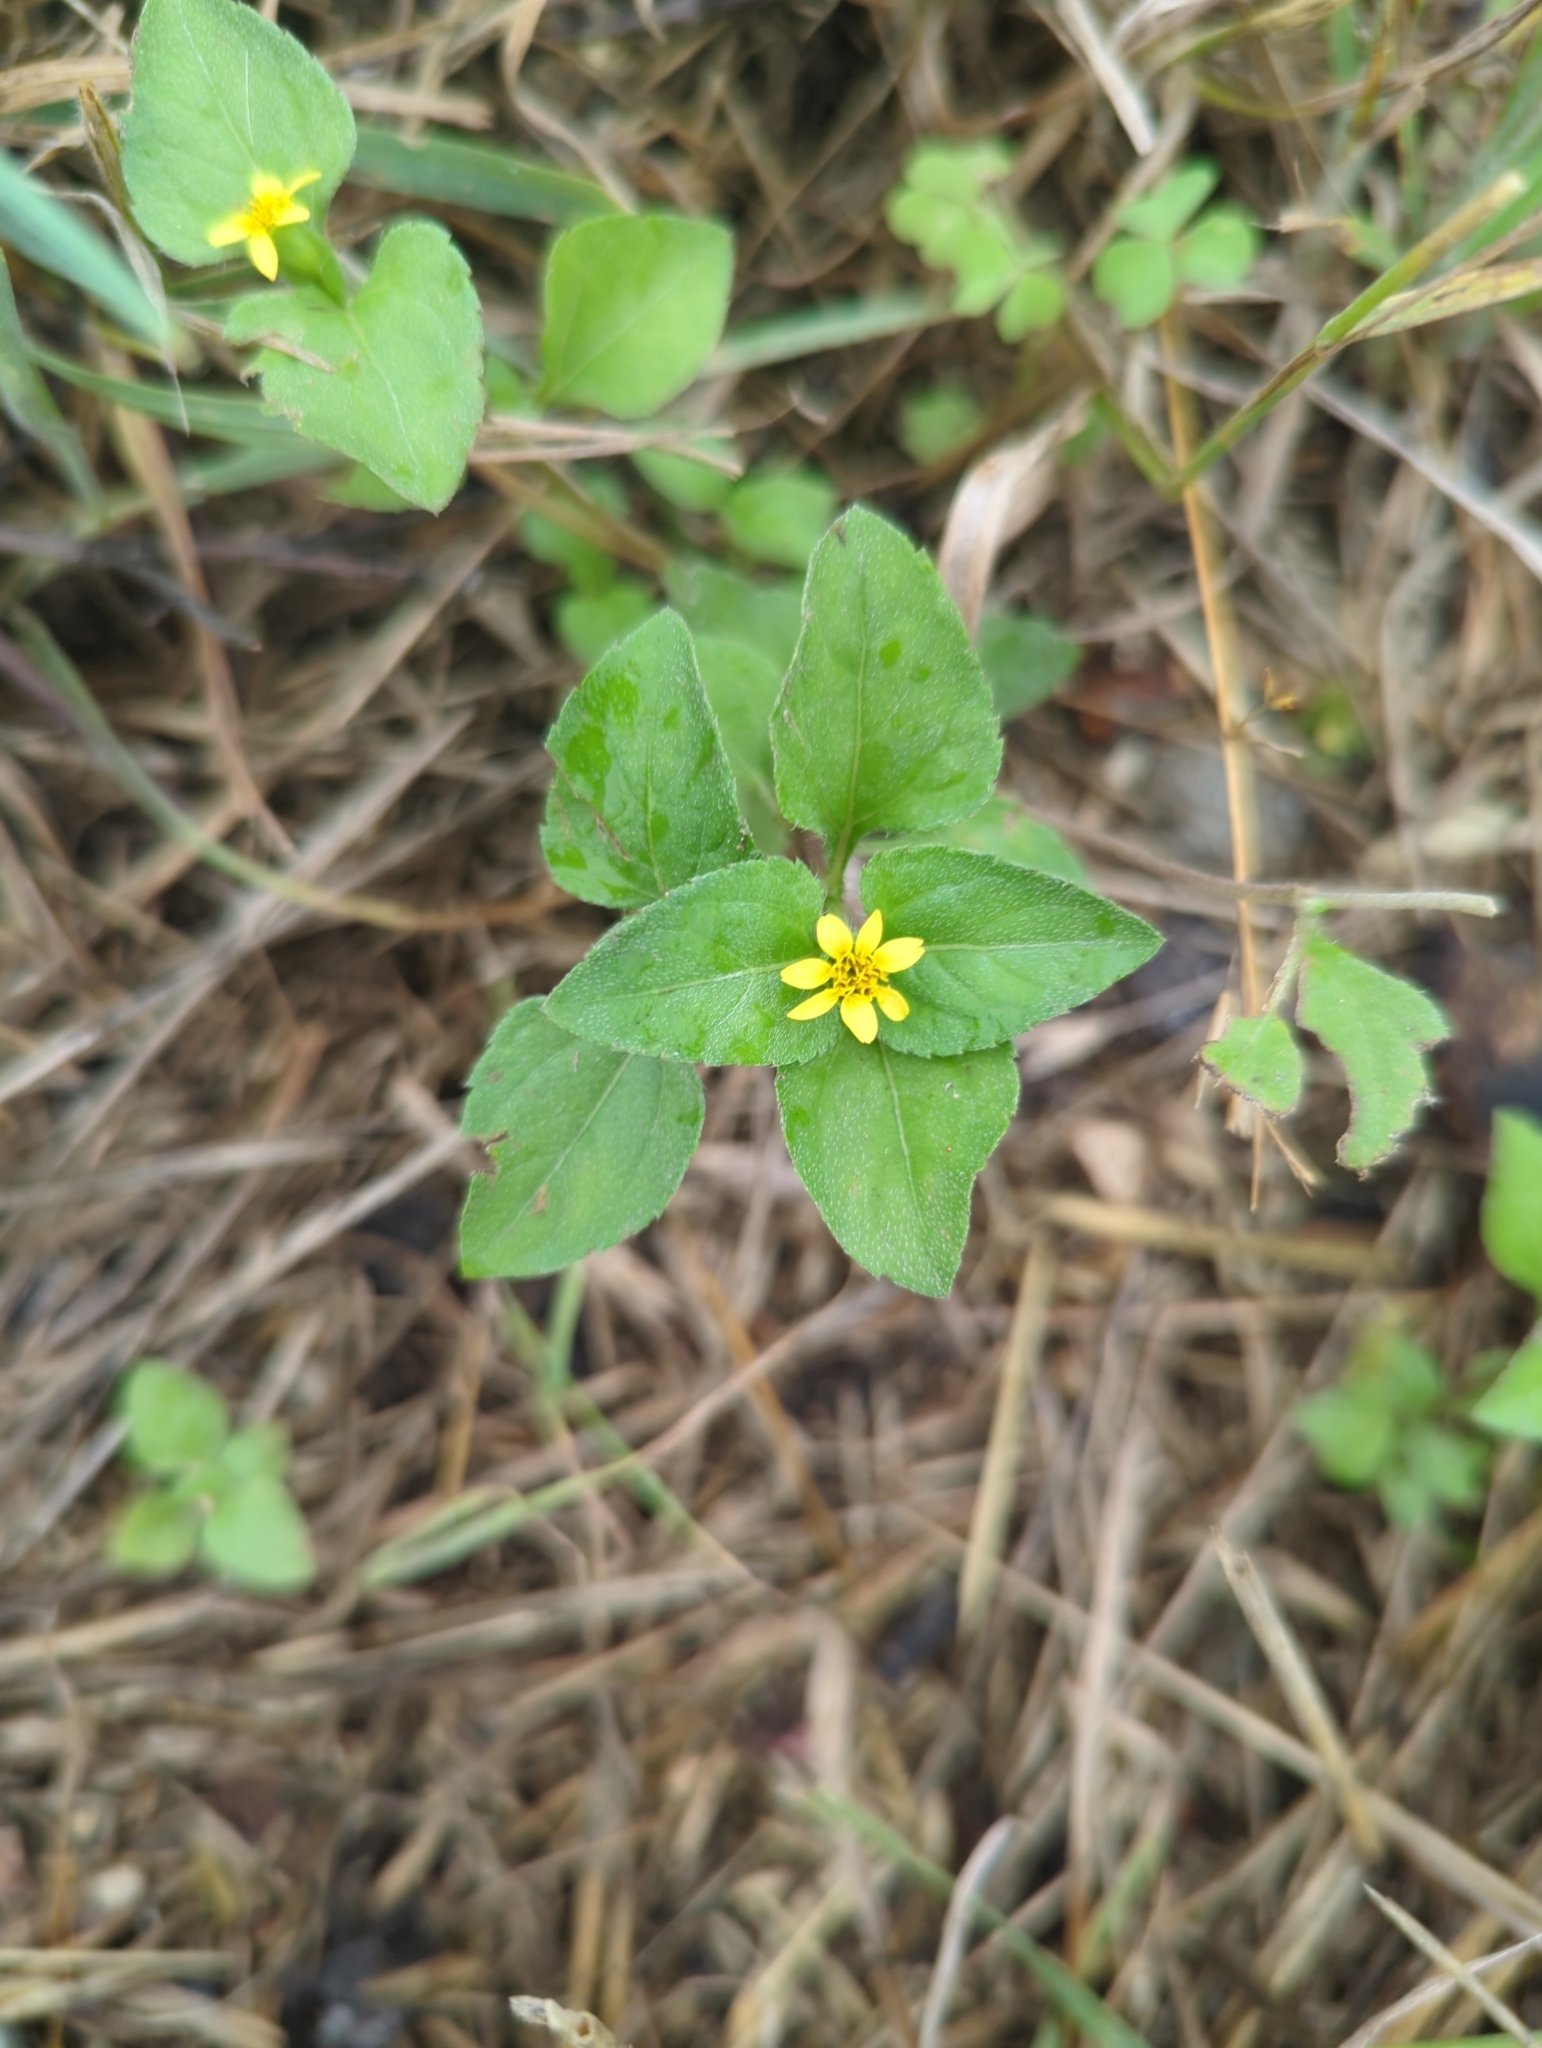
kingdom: Plantae
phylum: Tracheophyta
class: Magnoliopsida
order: Asterales
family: Asteraceae
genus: Calyptocarpus
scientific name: Calyptocarpus vialis
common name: Straggler daisy
